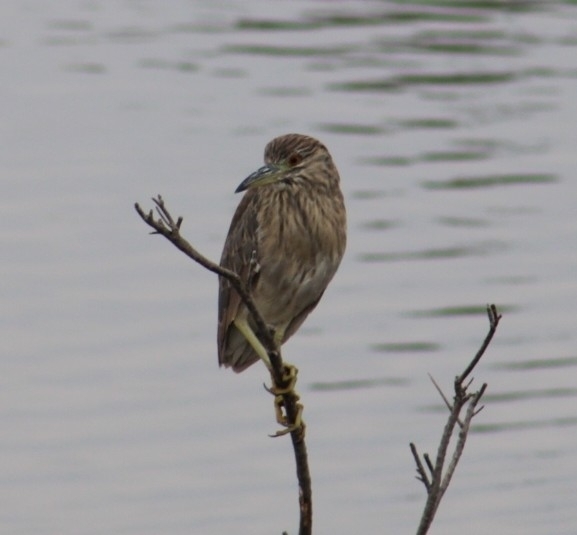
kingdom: Animalia
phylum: Chordata
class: Aves
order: Pelecaniformes
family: Ardeidae
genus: Nycticorax
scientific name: Nycticorax nycticorax
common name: Black-crowned night heron
